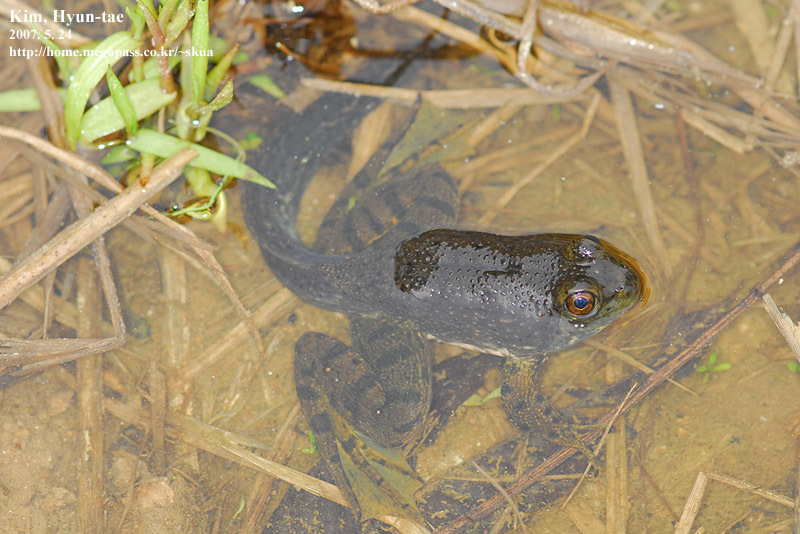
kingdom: Animalia
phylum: Chordata
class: Amphibia
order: Anura
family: Ranidae
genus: Lithobates
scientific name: Lithobates catesbeianus
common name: American bullfrog
